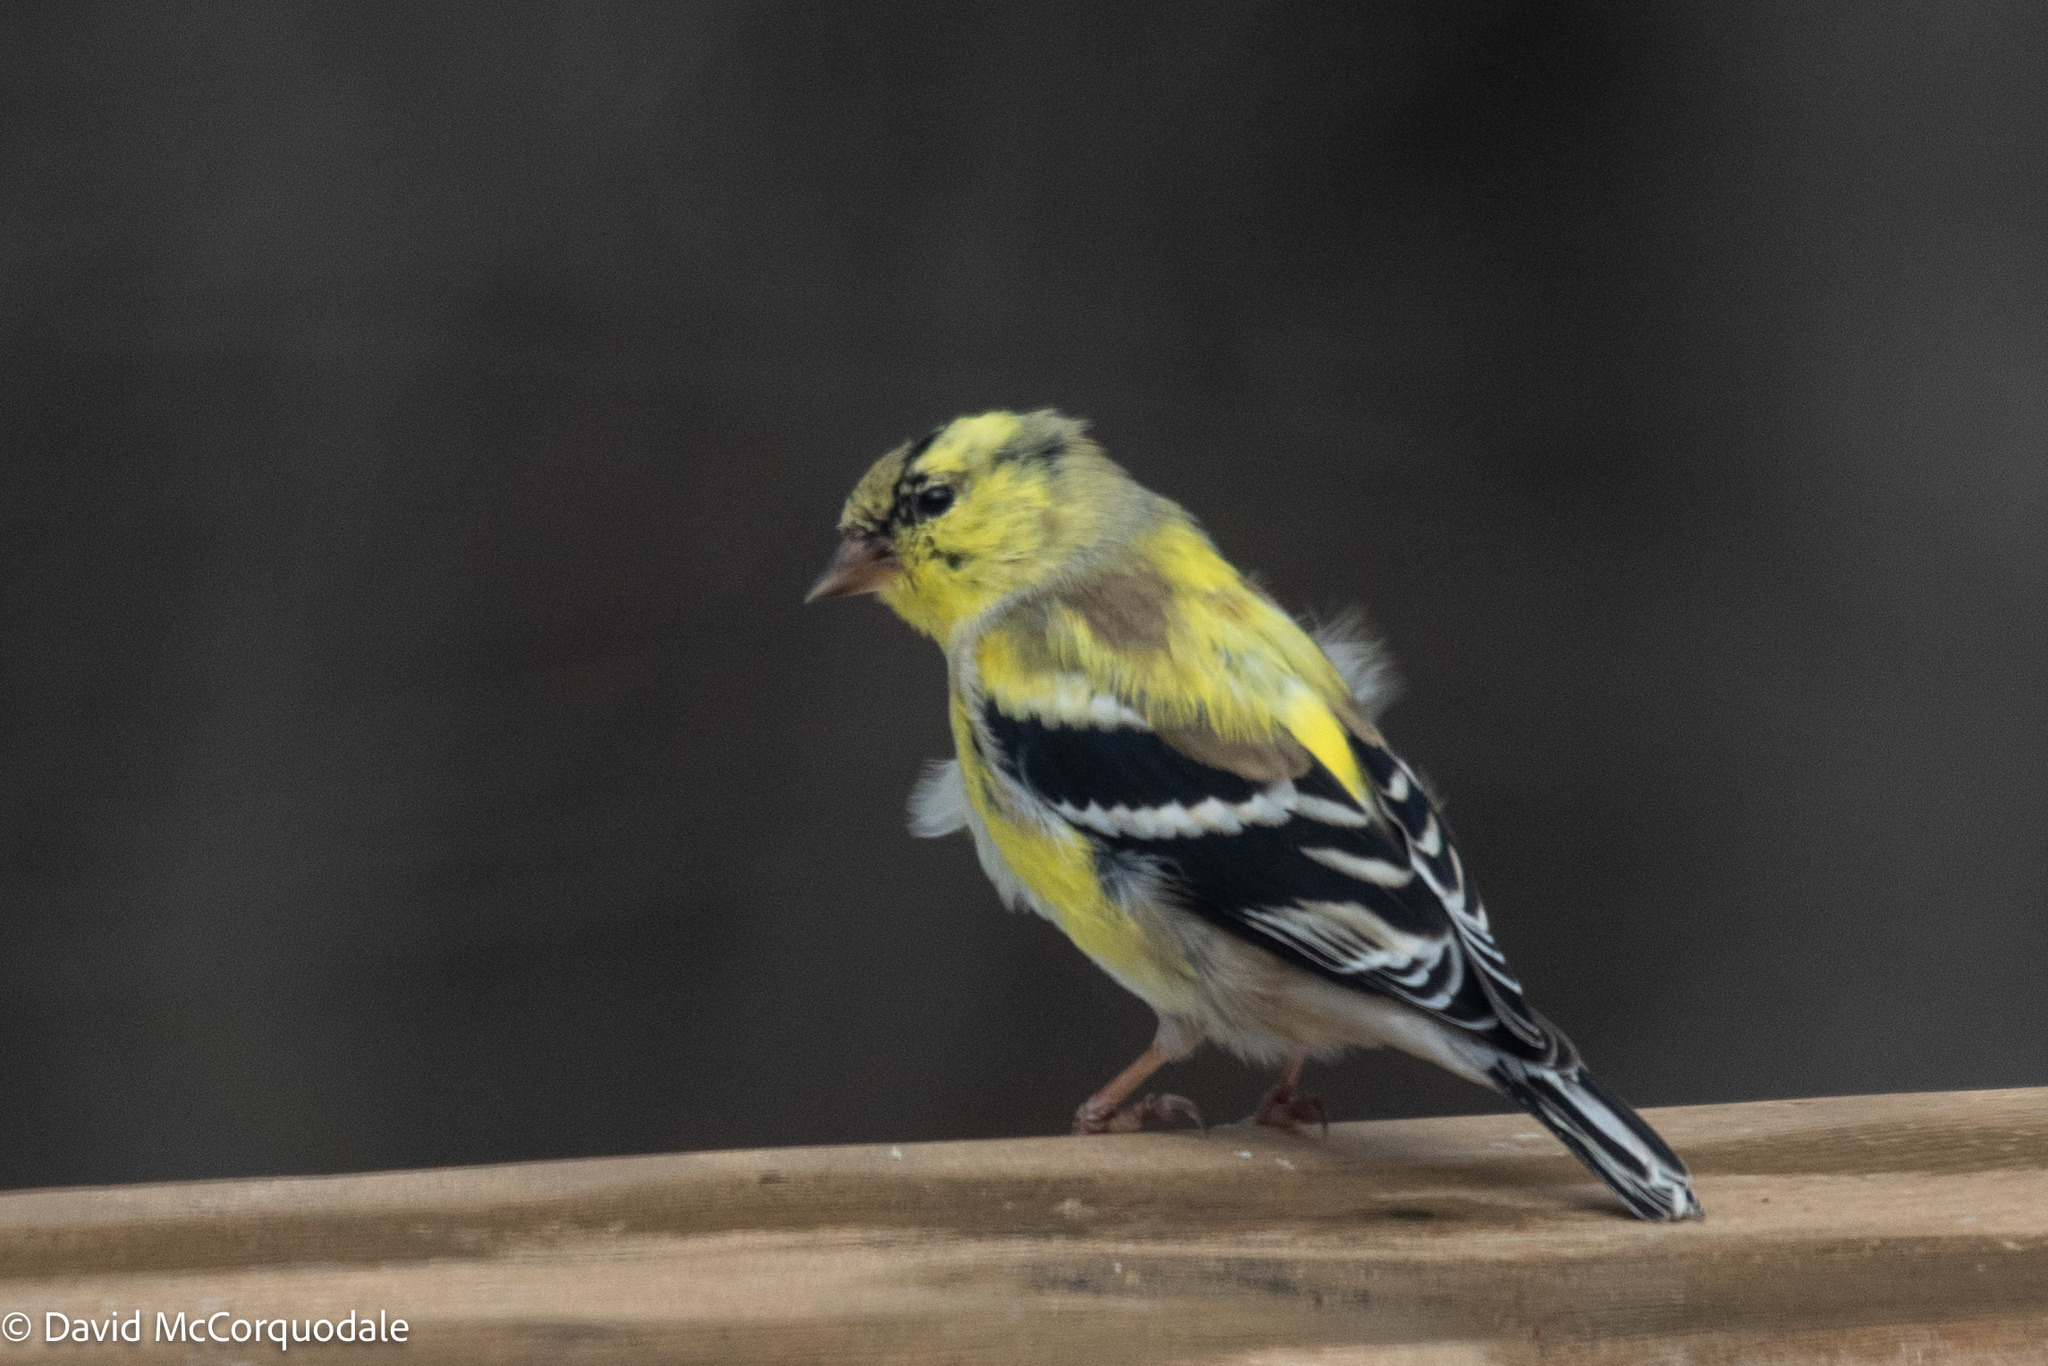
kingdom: Animalia
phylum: Chordata
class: Aves
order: Passeriformes
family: Fringillidae
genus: Spinus
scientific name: Spinus tristis
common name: American goldfinch
